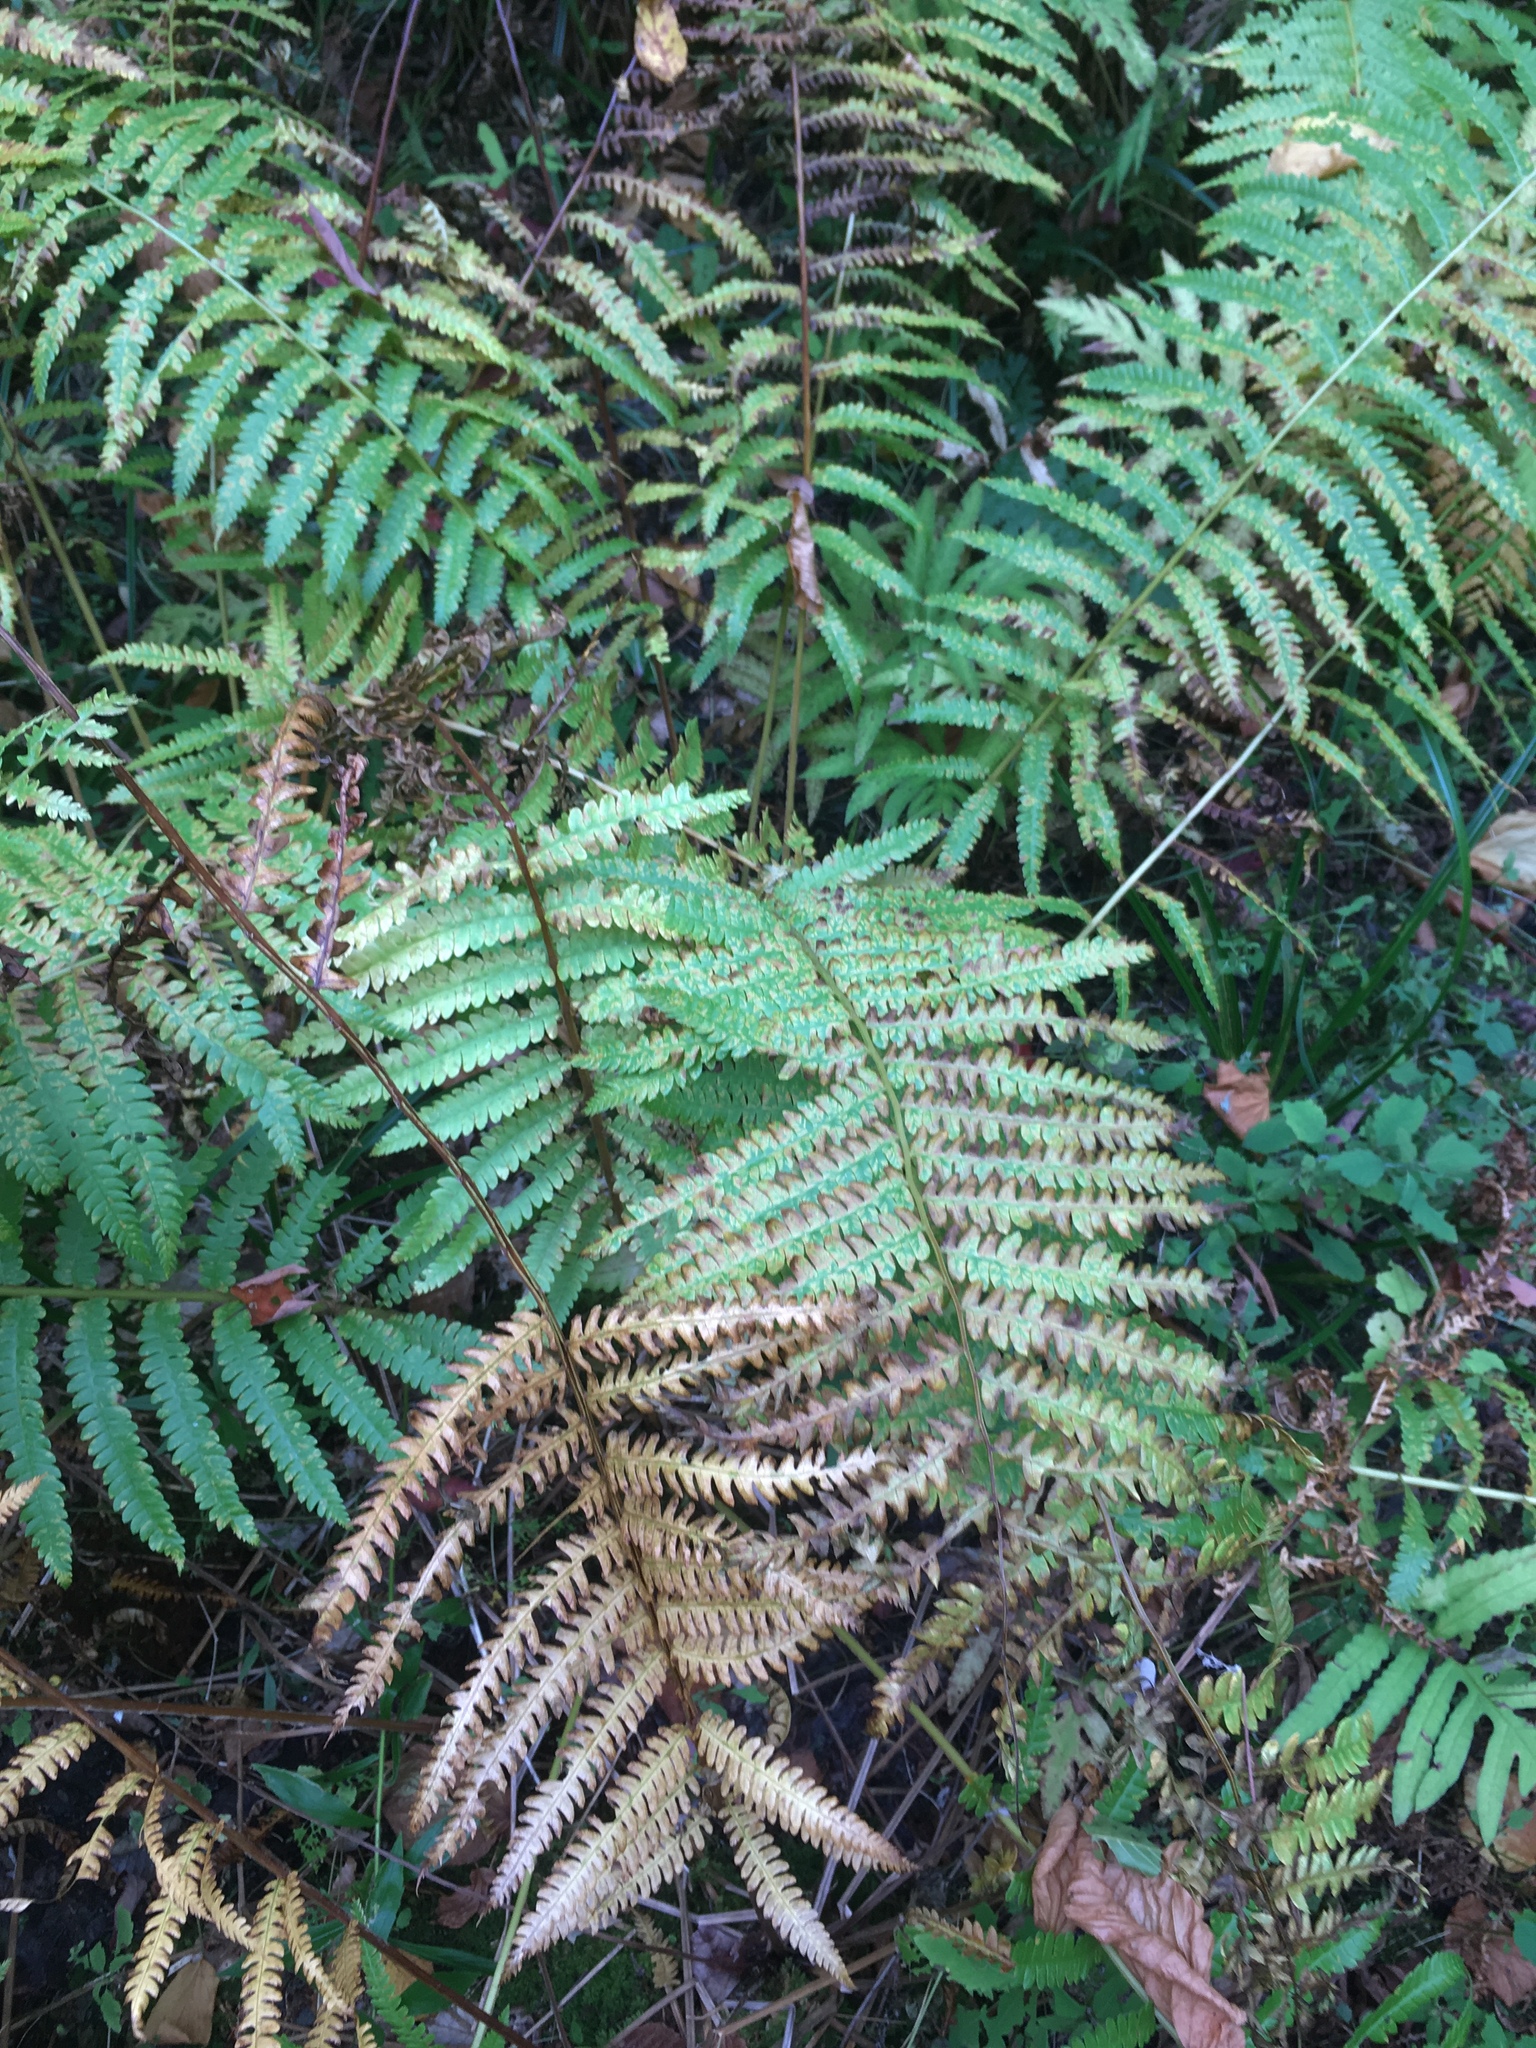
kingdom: Plantae
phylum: Tracheophyta
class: Polypodiopsida
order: Osmundales
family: Osmundaceae
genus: Osmundastrum
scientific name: Osmundastrum cinnamomeum
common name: Cinnamon fern
